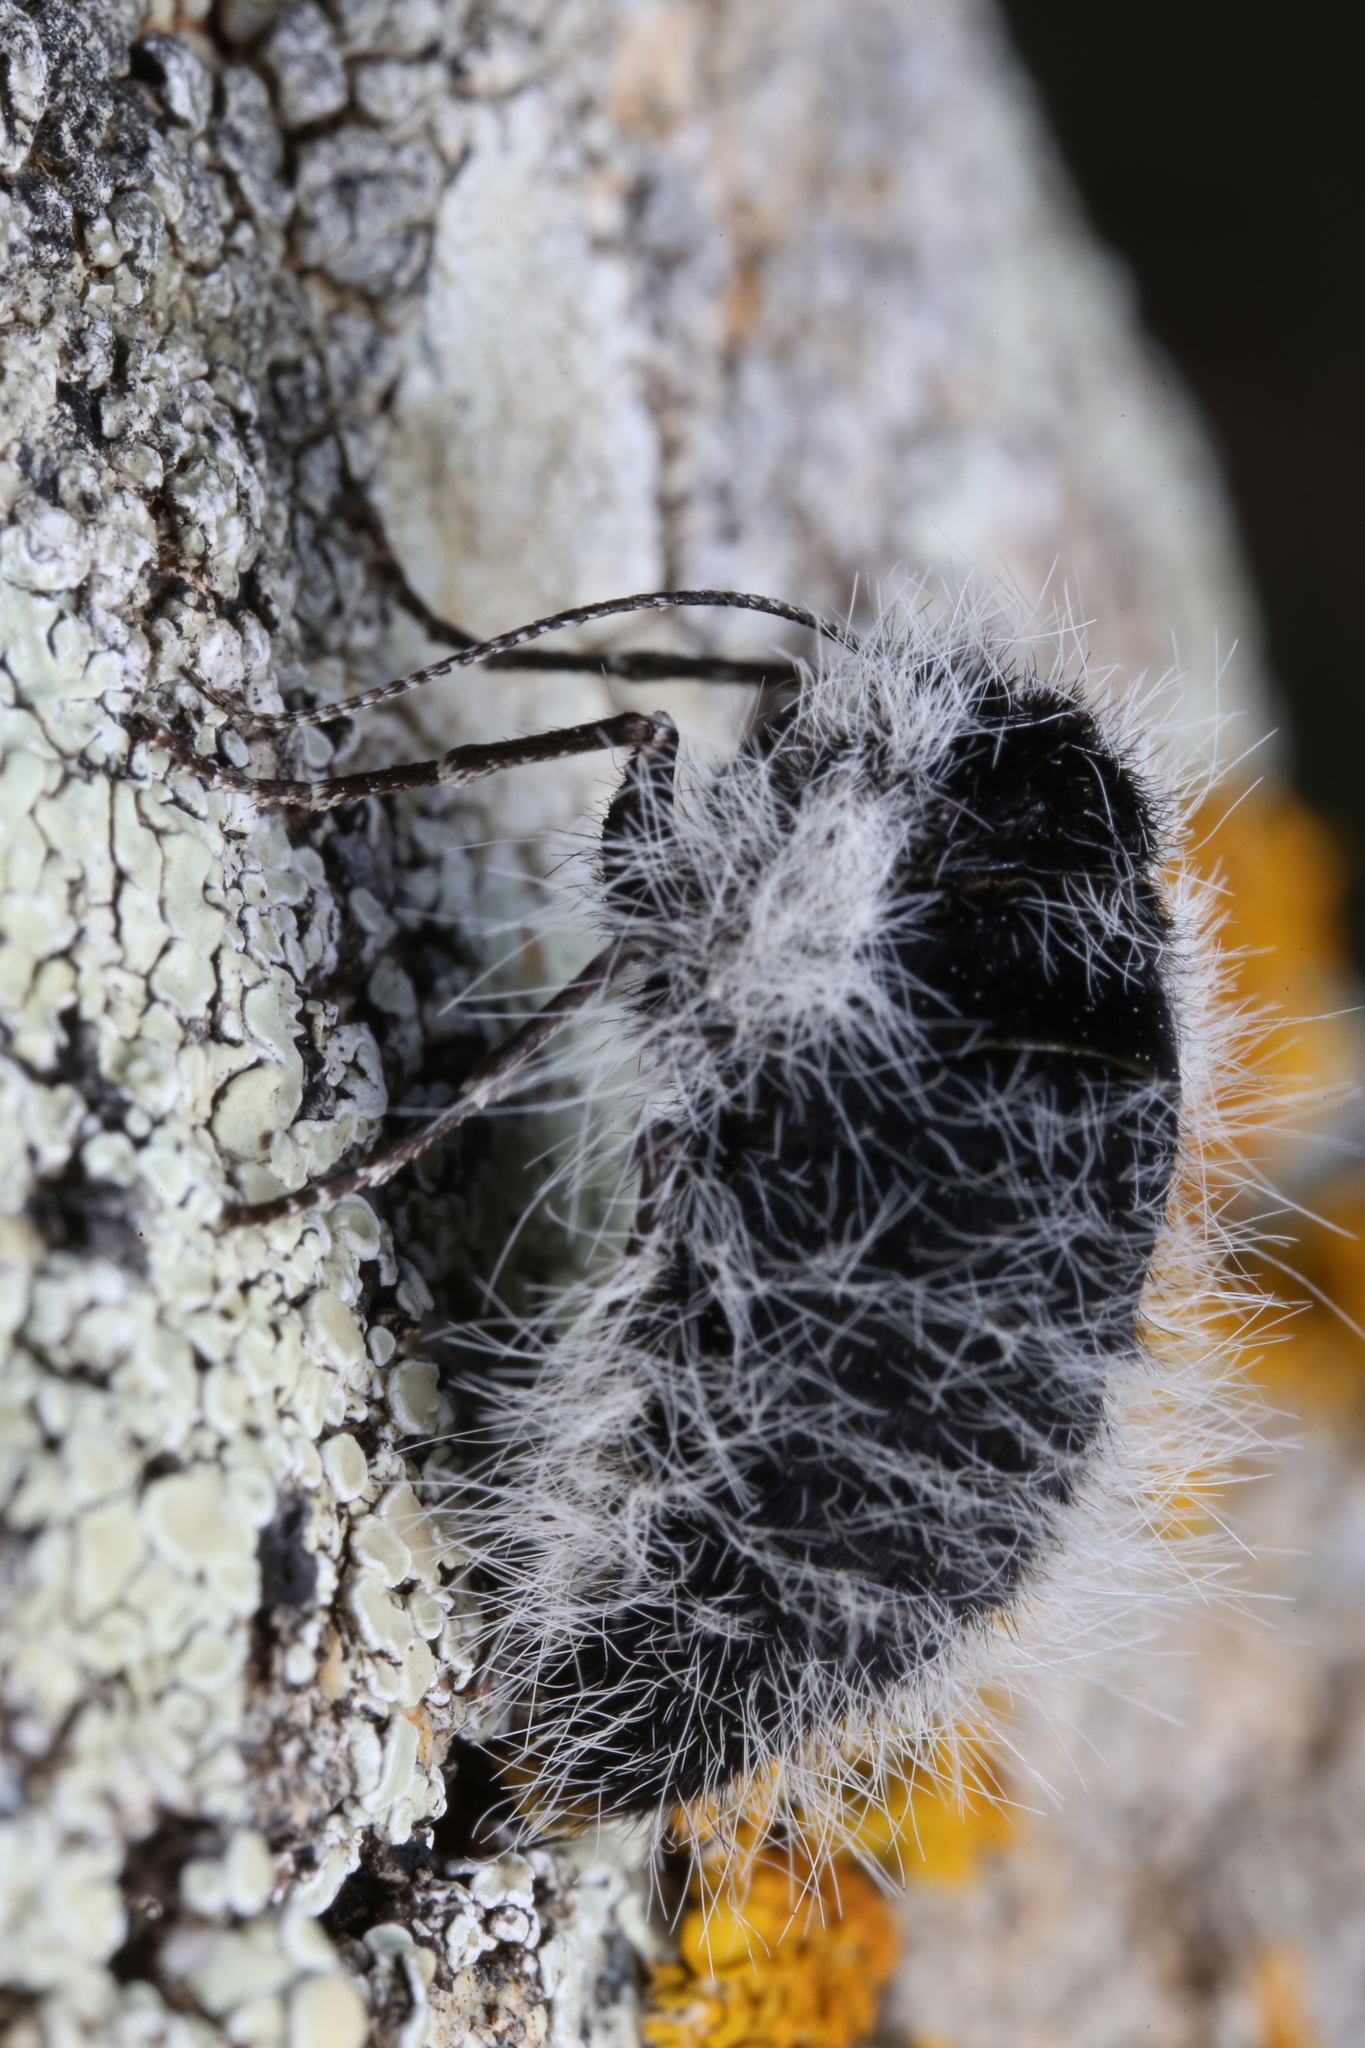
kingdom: Animalia
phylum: Arthropoda
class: Insecta
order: Lepidoptera
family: Geometridae
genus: Lycia
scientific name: Lycia graecarius
